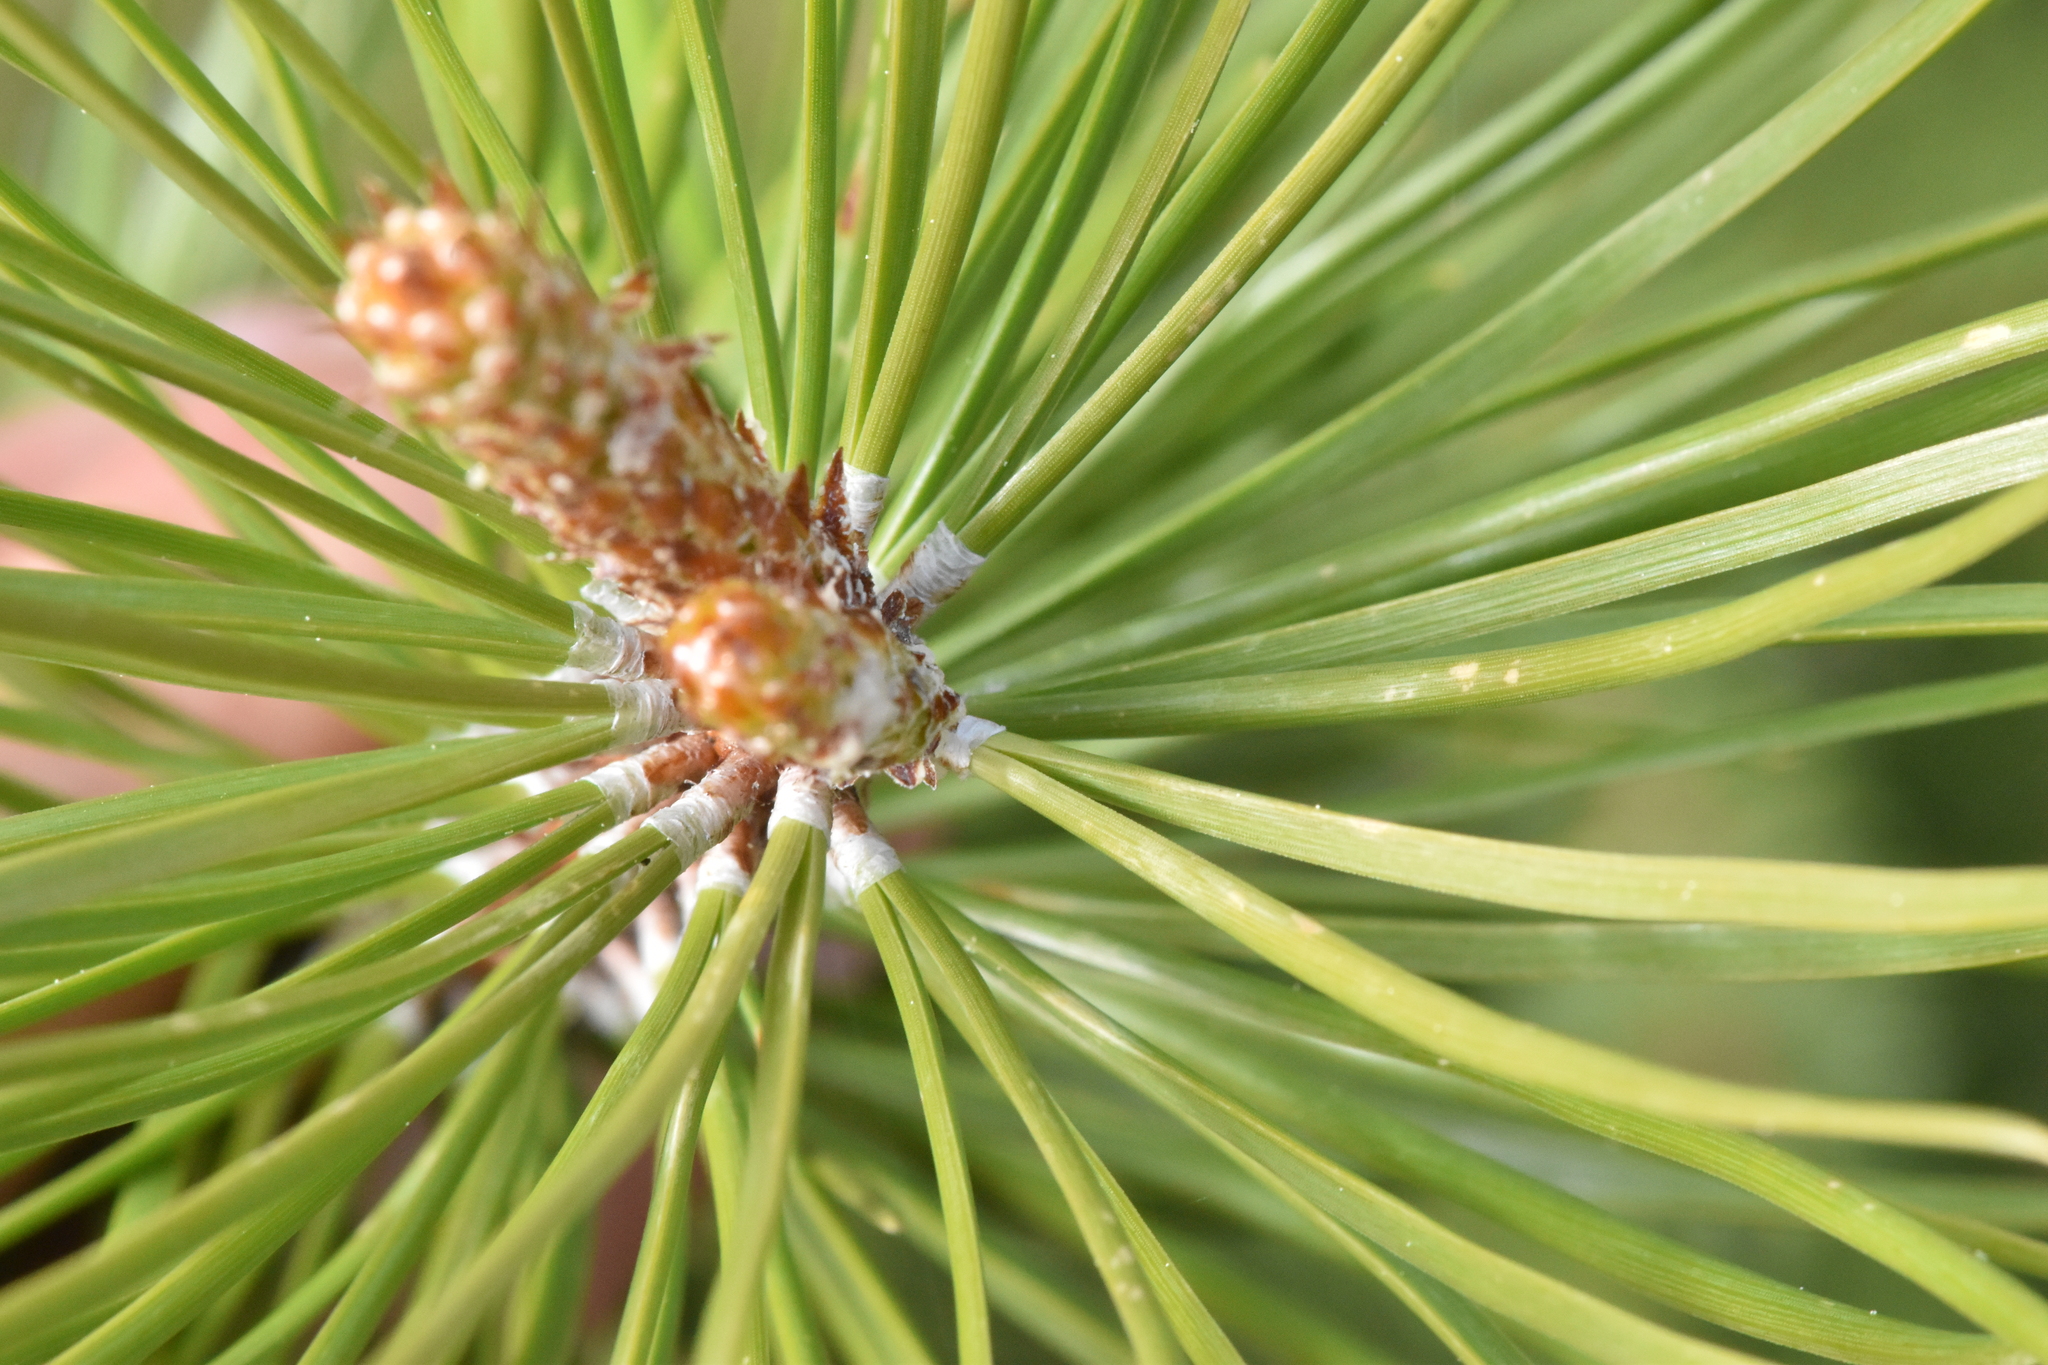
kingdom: Plantae
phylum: Tracheophyta
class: Pinopsida
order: Pinales
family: Pinaceae
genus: Pinus
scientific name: Pinus contorta
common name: Lodgepole pine
